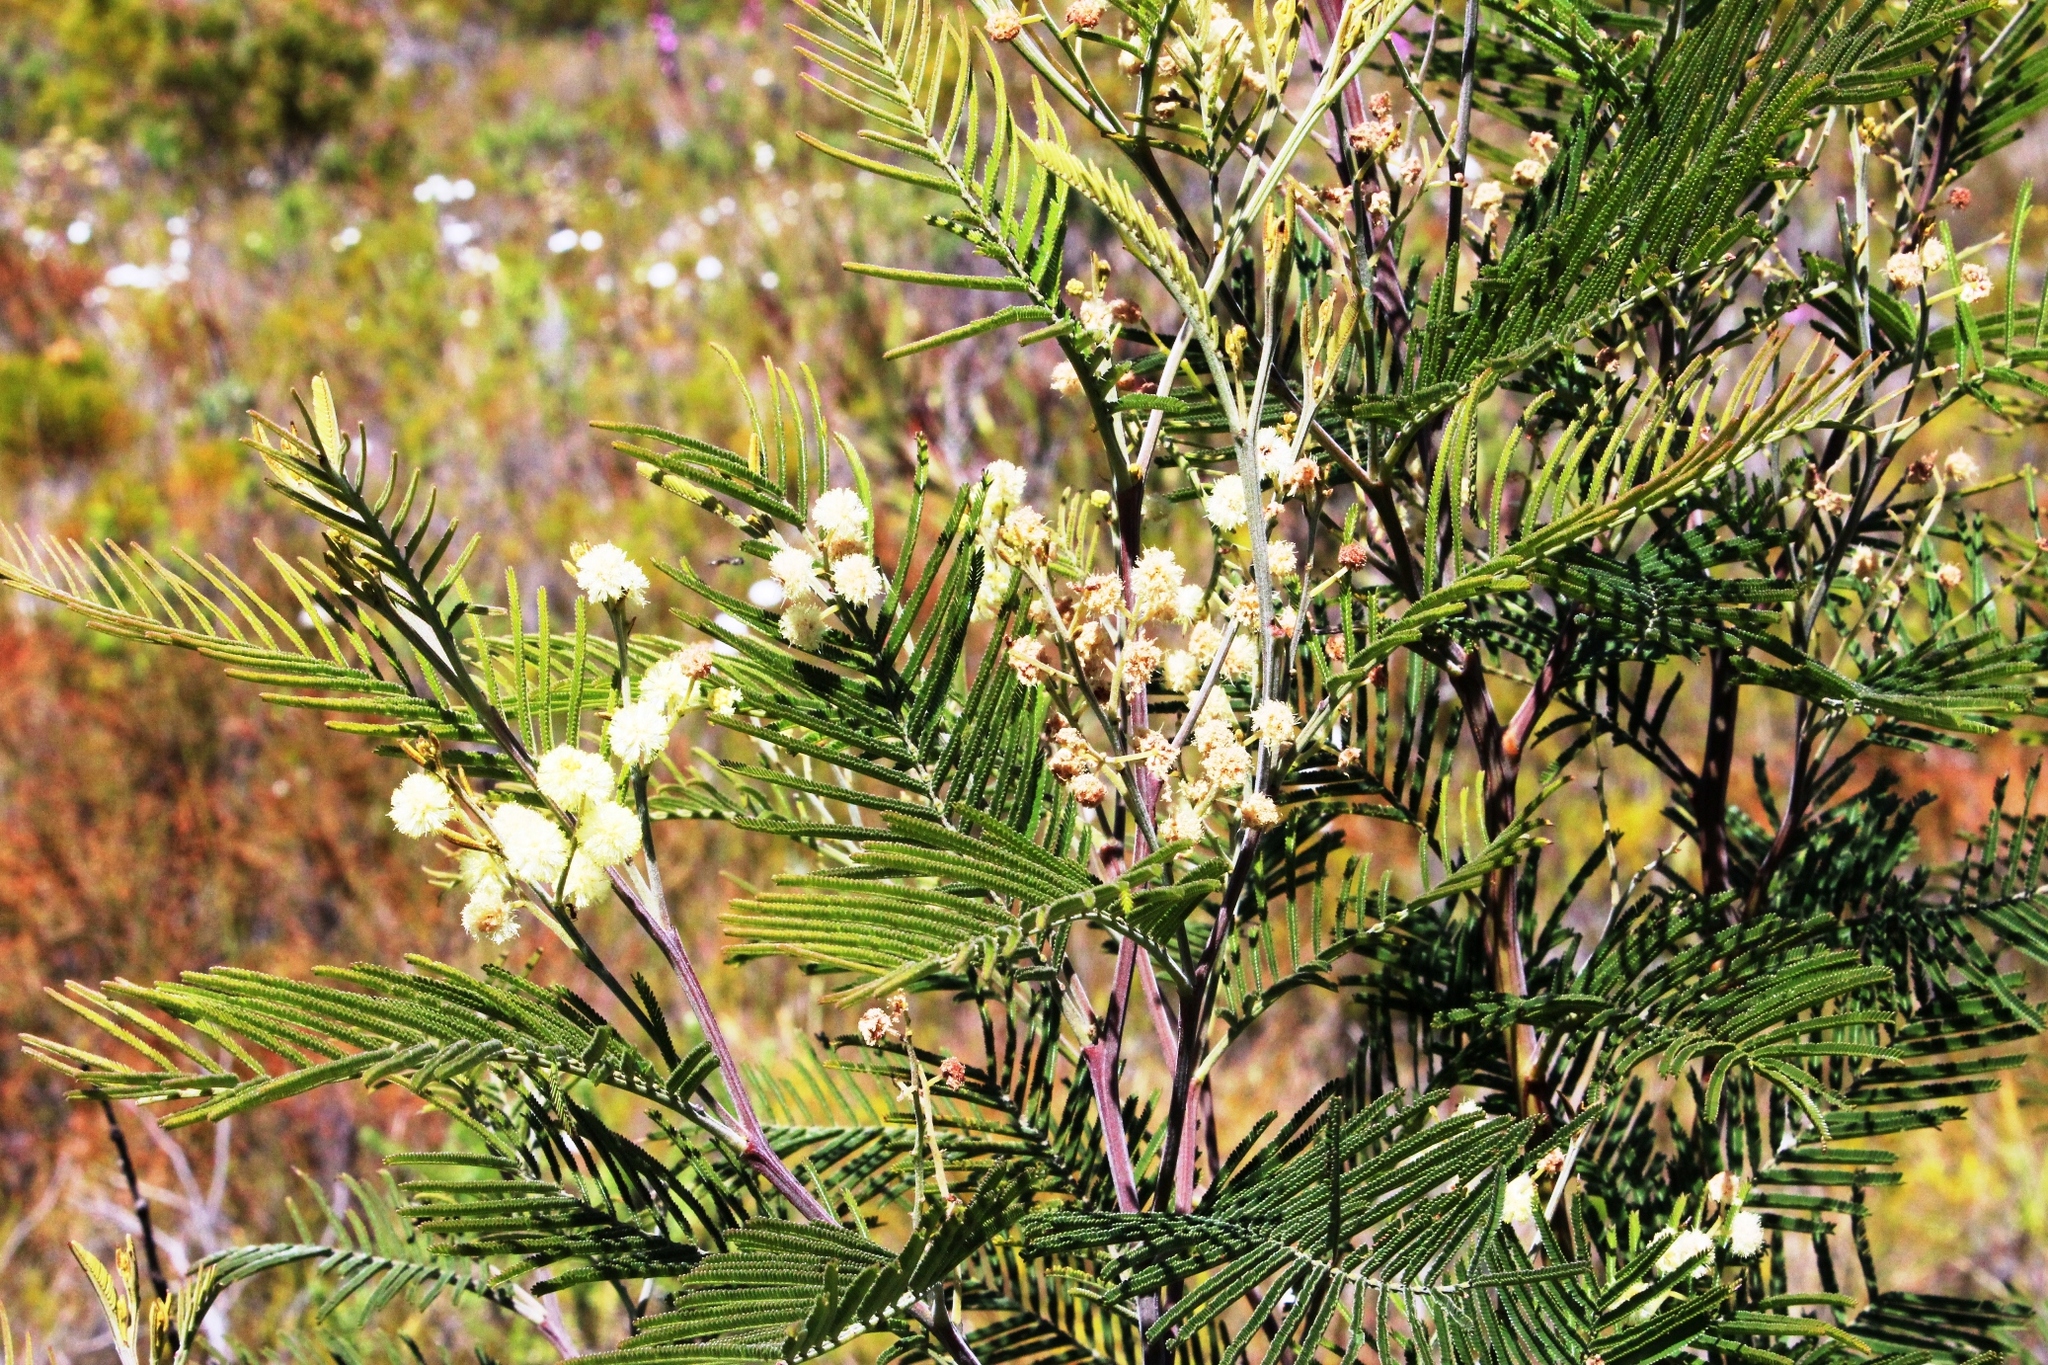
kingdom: Plantae
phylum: Tracheophyta
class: Magnoliopsida
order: Fabales
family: Fabaceae
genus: Acacia
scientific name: Acacia mearnsii
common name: Black wattle
